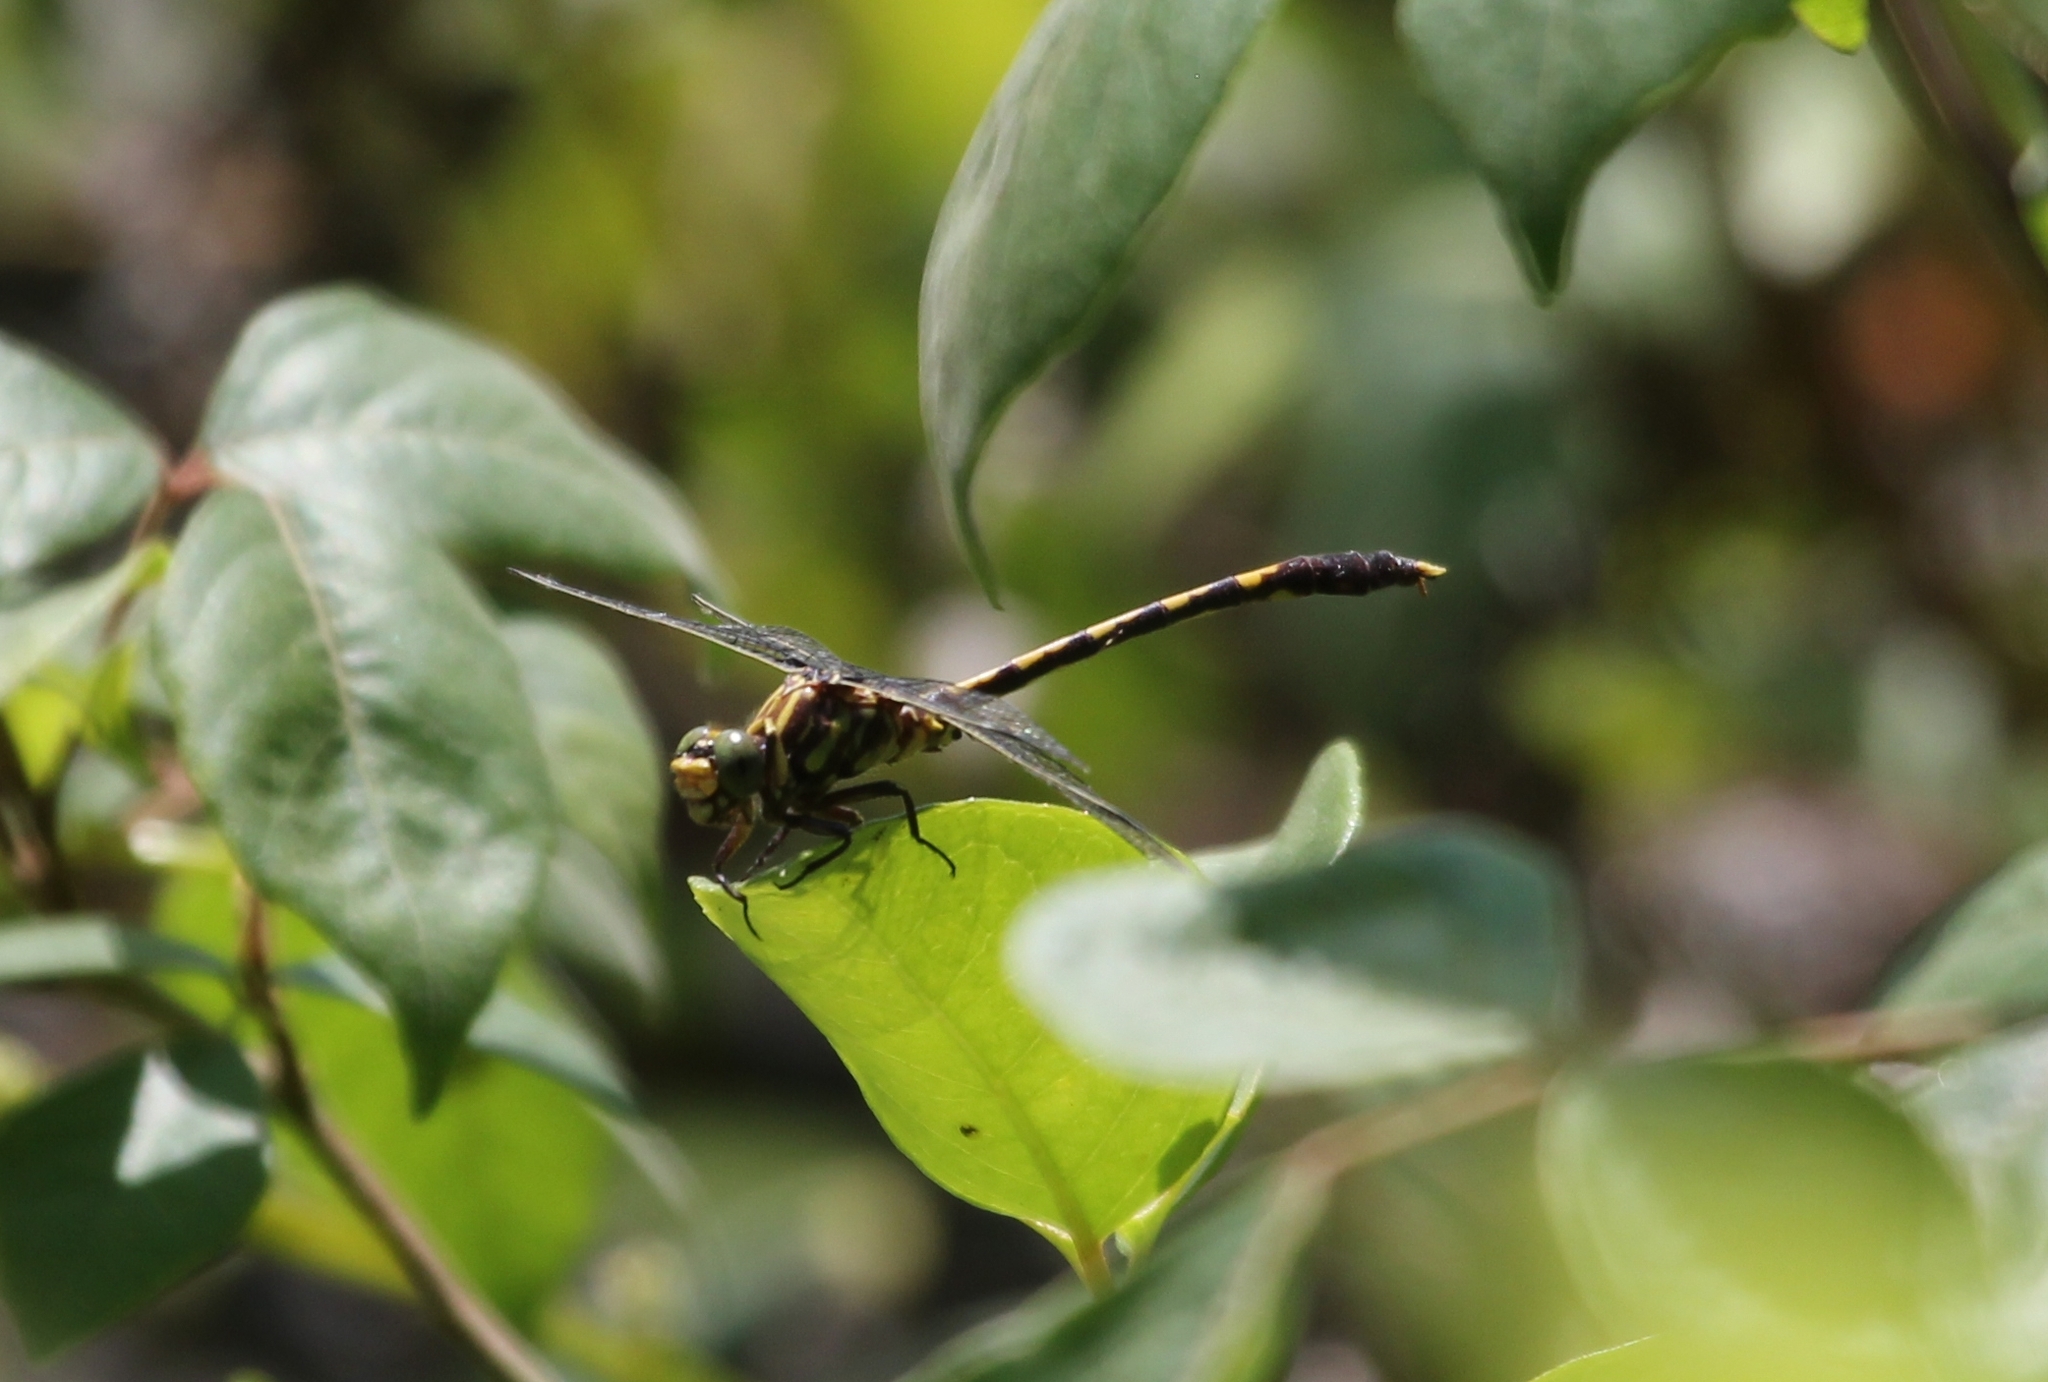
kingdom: Animalia
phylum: Arthropoda
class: Insecta
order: Odonata
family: Gomphidae
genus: Progomphus
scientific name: Progomphus obscurus
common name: Common sanddragon
